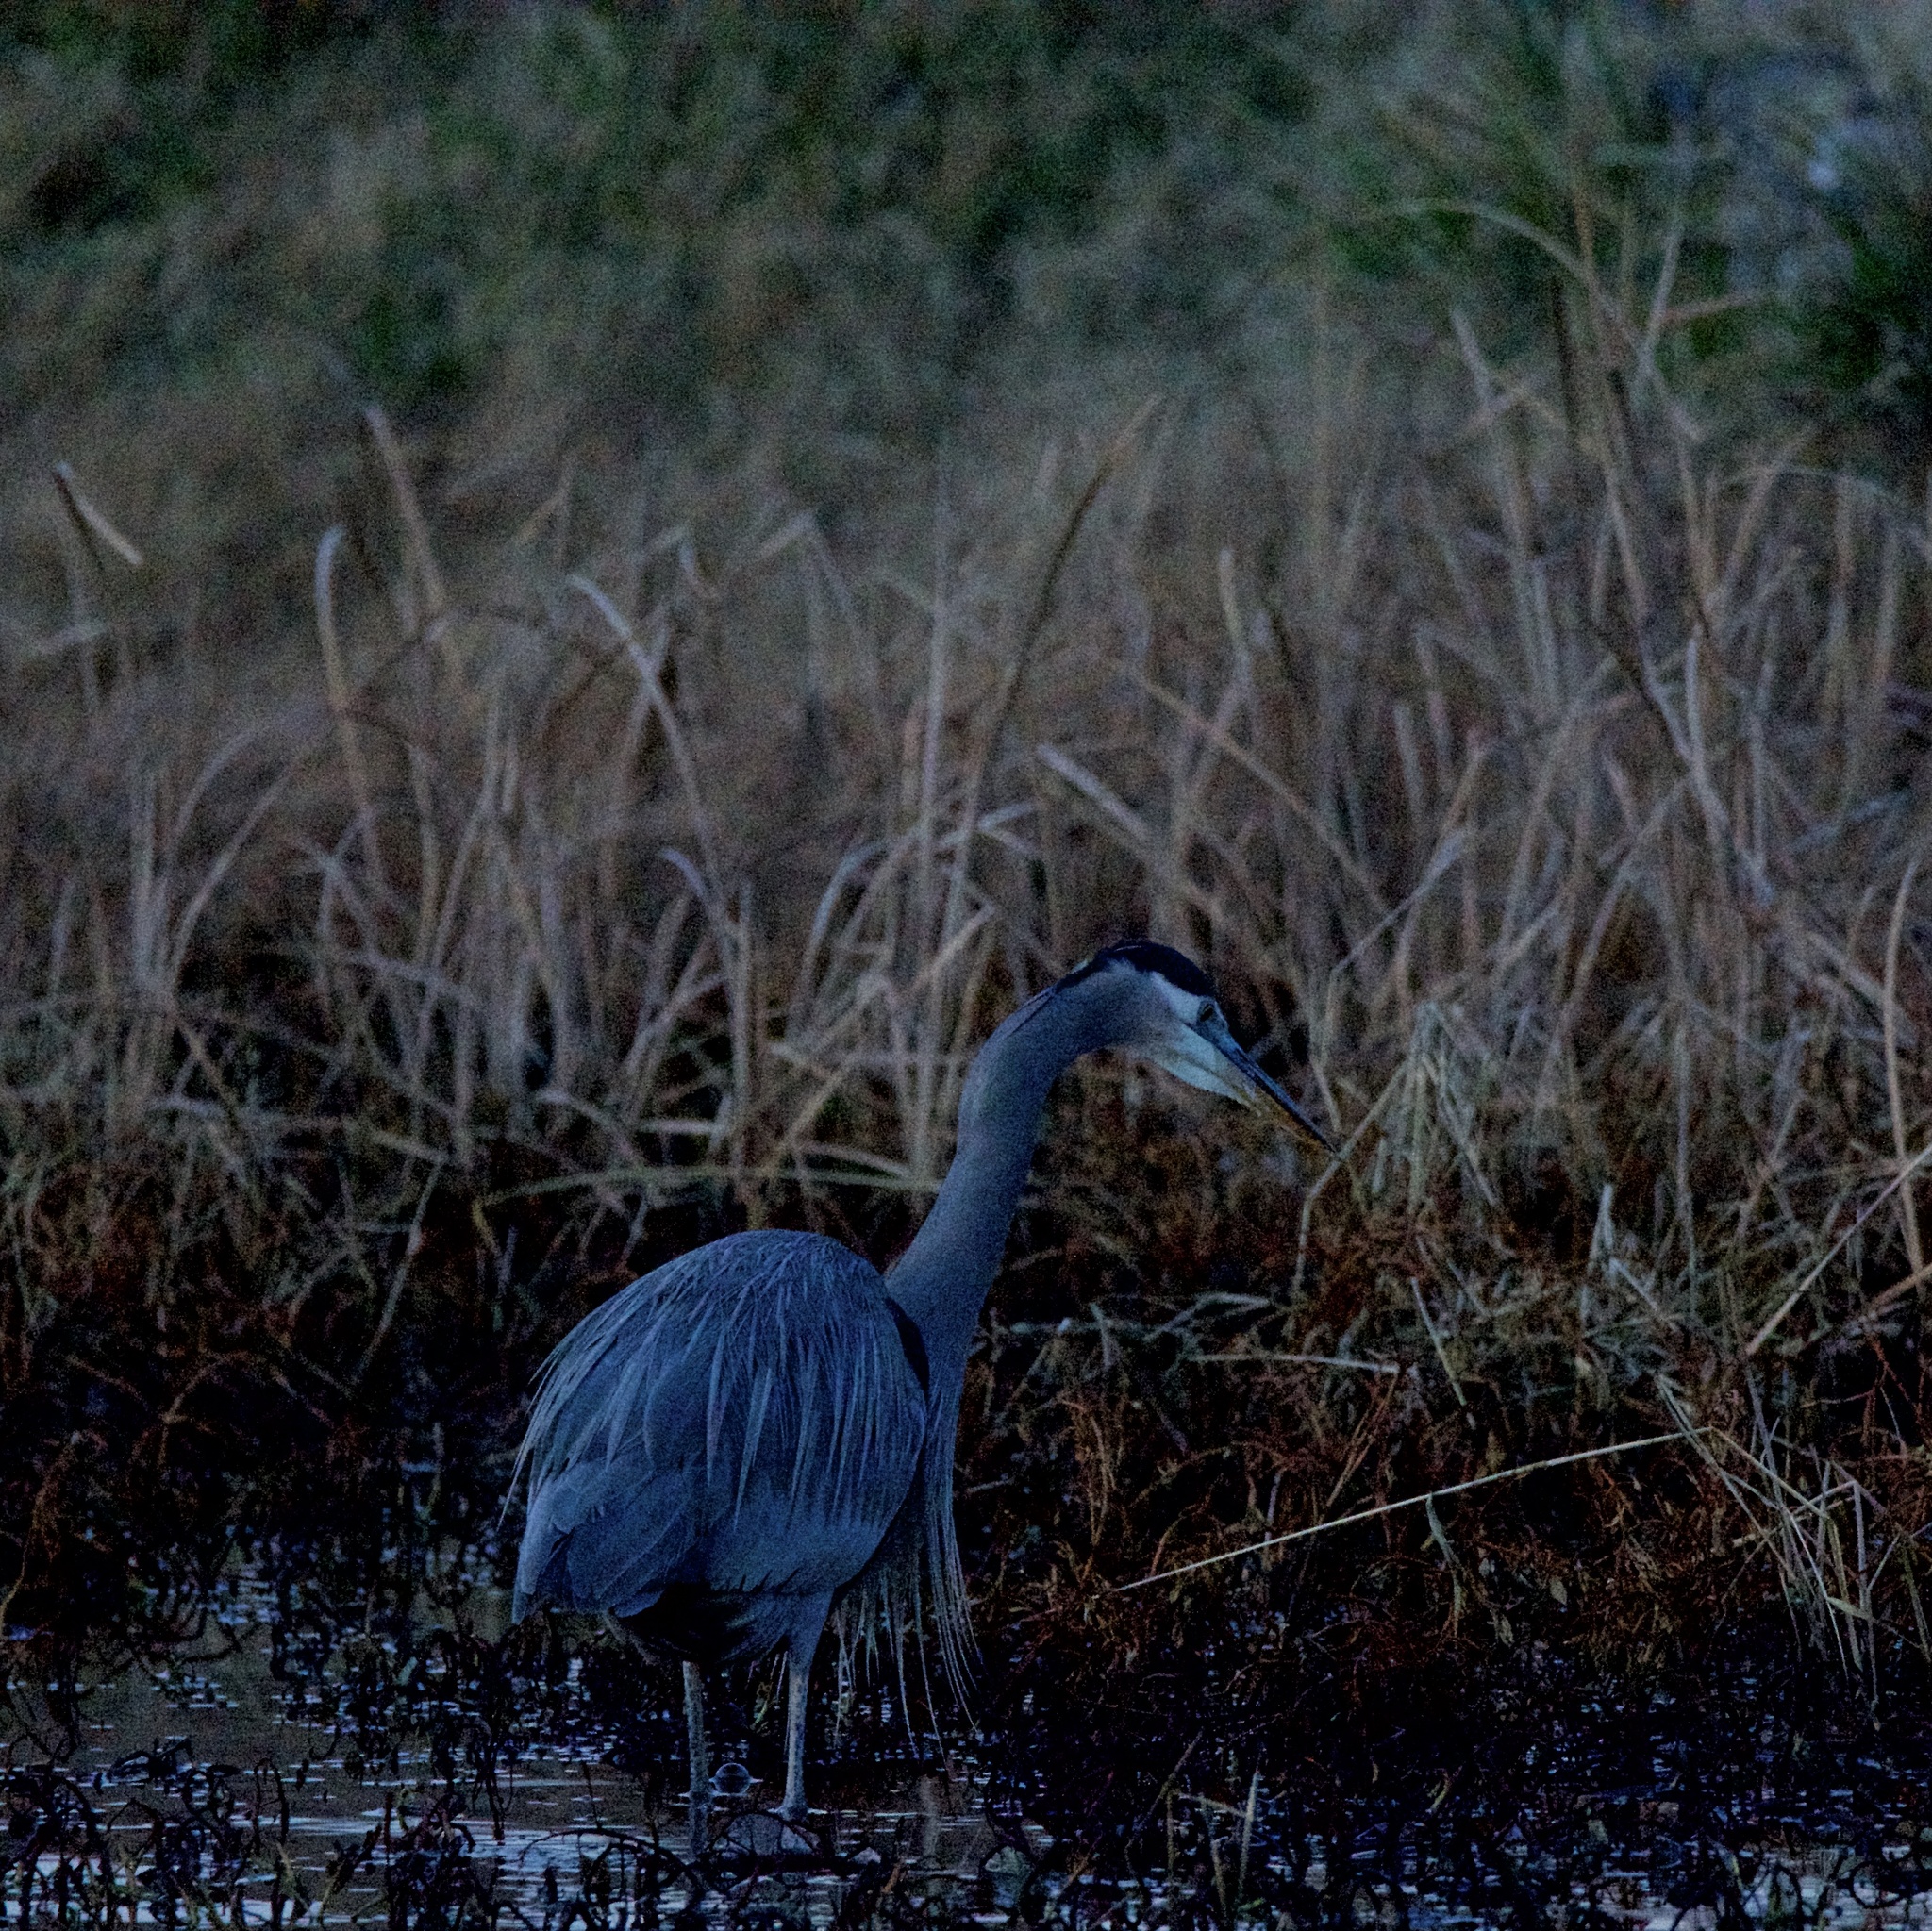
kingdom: Animalia
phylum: Chordata
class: Aves
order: Pelecaniformes
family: Ardeidae
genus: Ardea
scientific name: Ardea herodias
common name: Great blue heron
